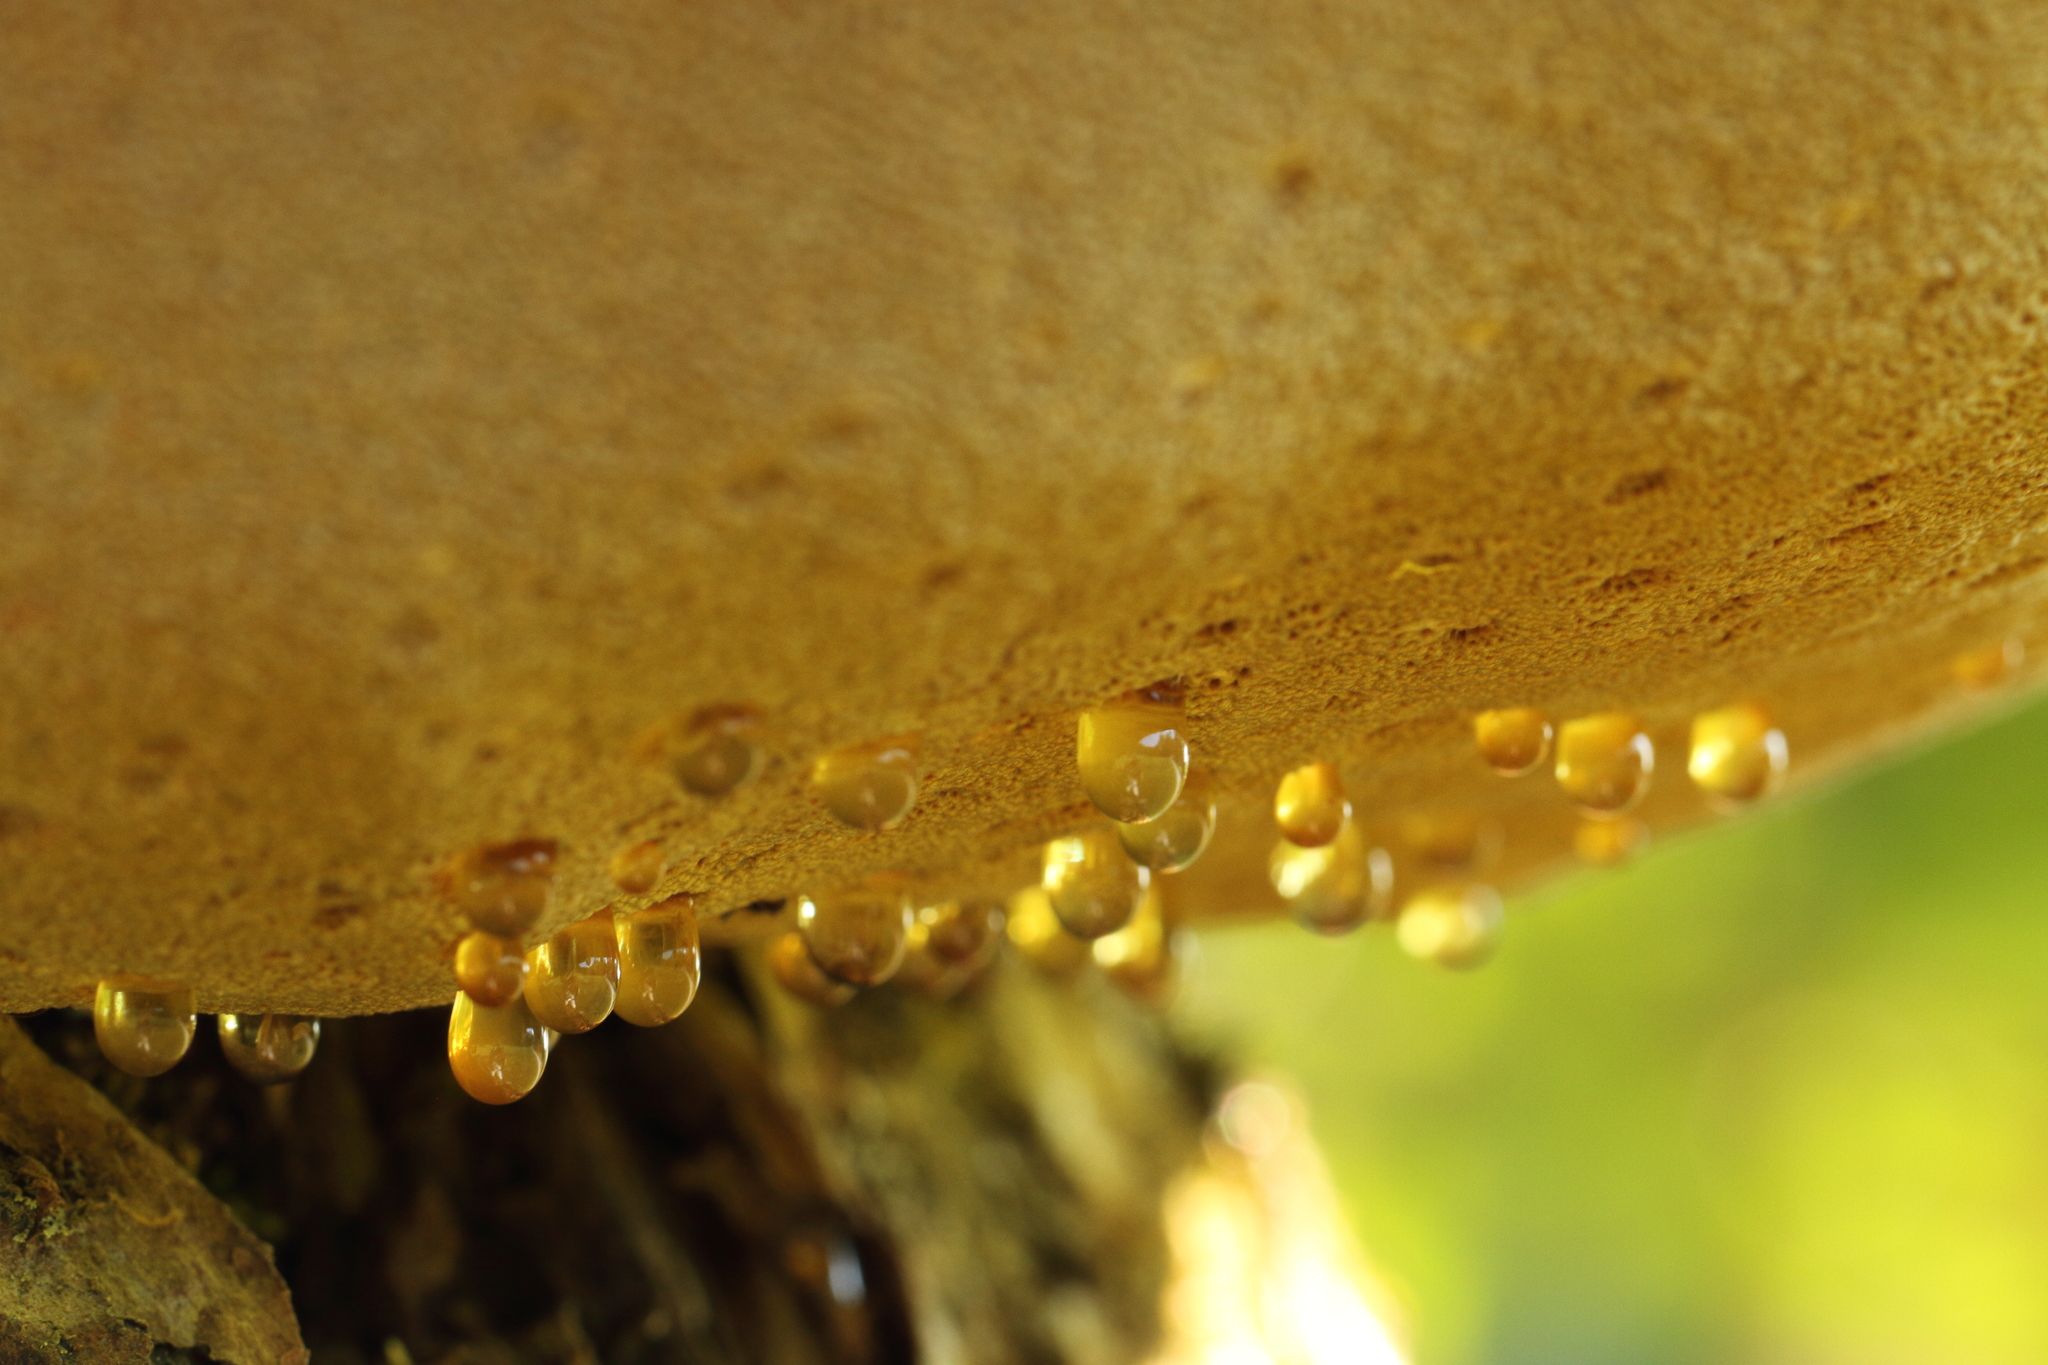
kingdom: Fungi
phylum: Basidiomycota
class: Agaricomycetes
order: Hymenochaetales
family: Hymenochaetaceae
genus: Inonotus
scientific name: Inonotus hispidus
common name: Shaggy bracket
